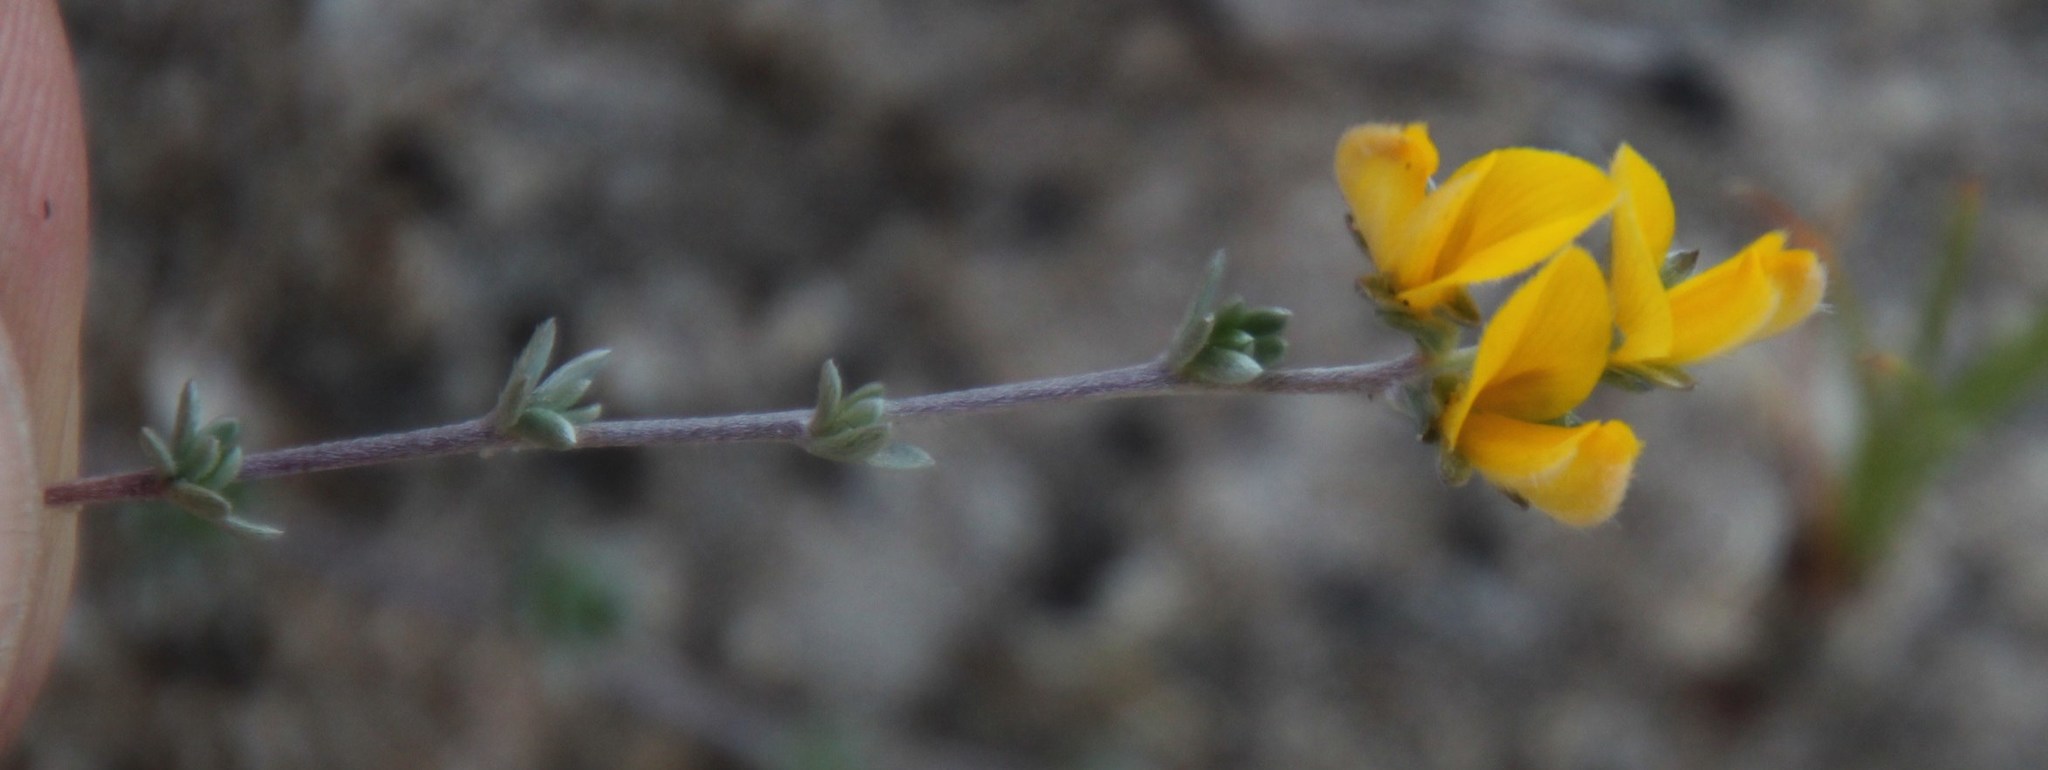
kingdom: Plantae
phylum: Tracheophyta
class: Magnoliopsida
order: Fabales
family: Fabaceae
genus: Aspalathus
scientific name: Aspalathus villosa
